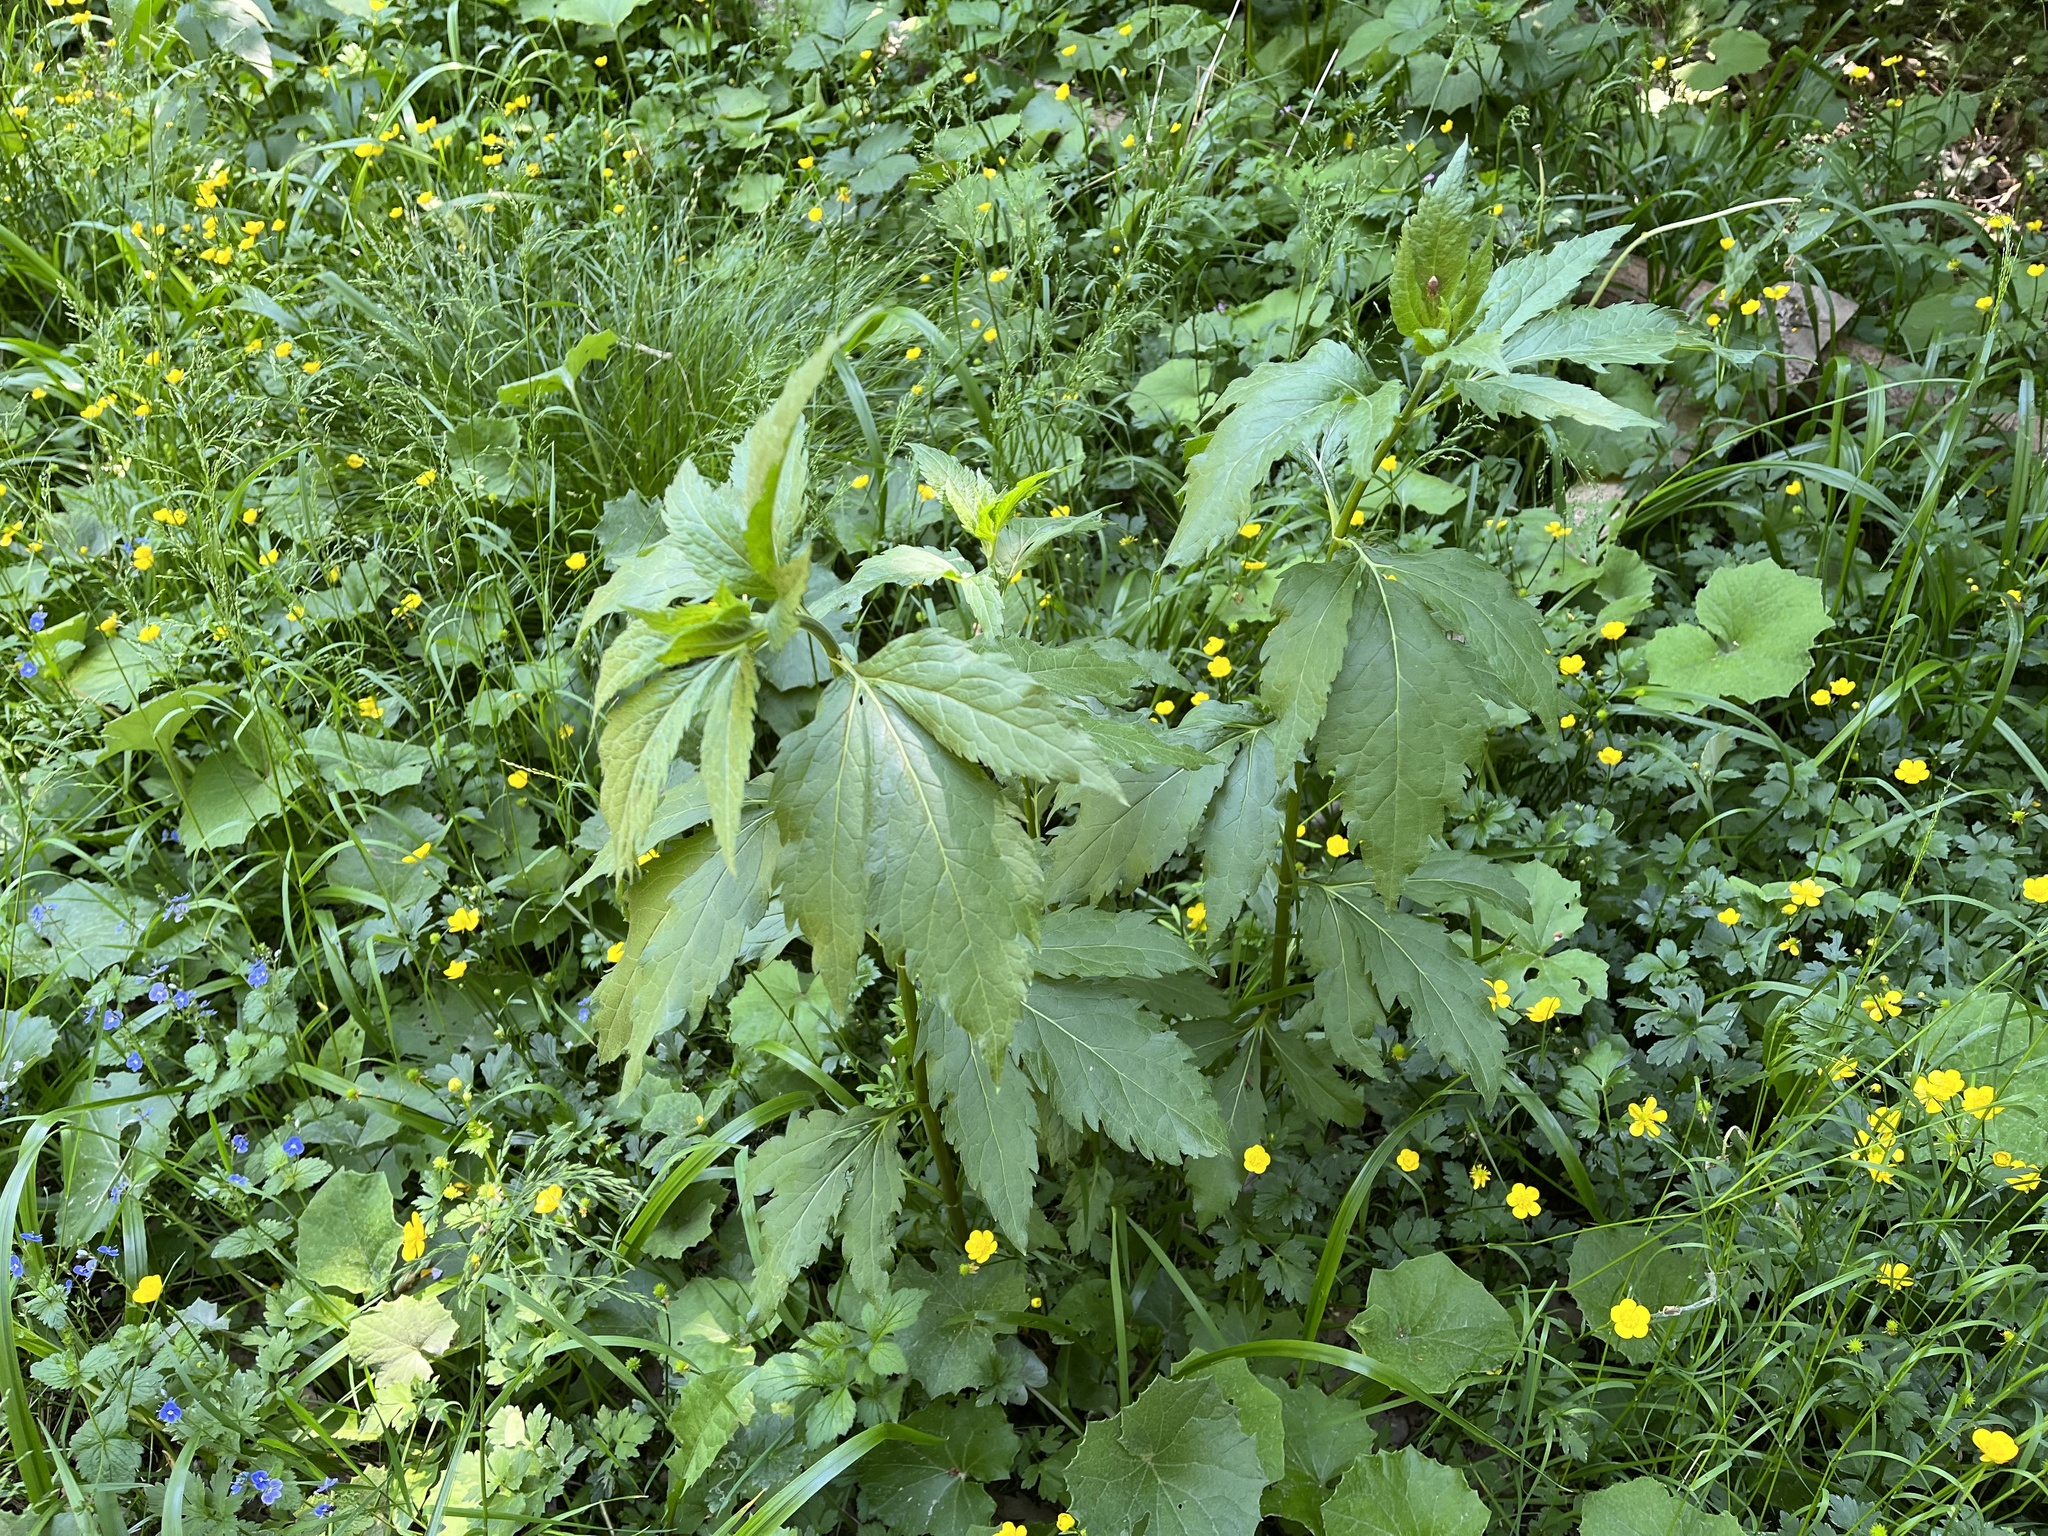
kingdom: Plantae
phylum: Tracheophyta
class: Magnoliopsida
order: Asterales
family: Asteraceae
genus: Eupatorium
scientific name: Eupatorium cannabinum
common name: Hemp-agrimony
